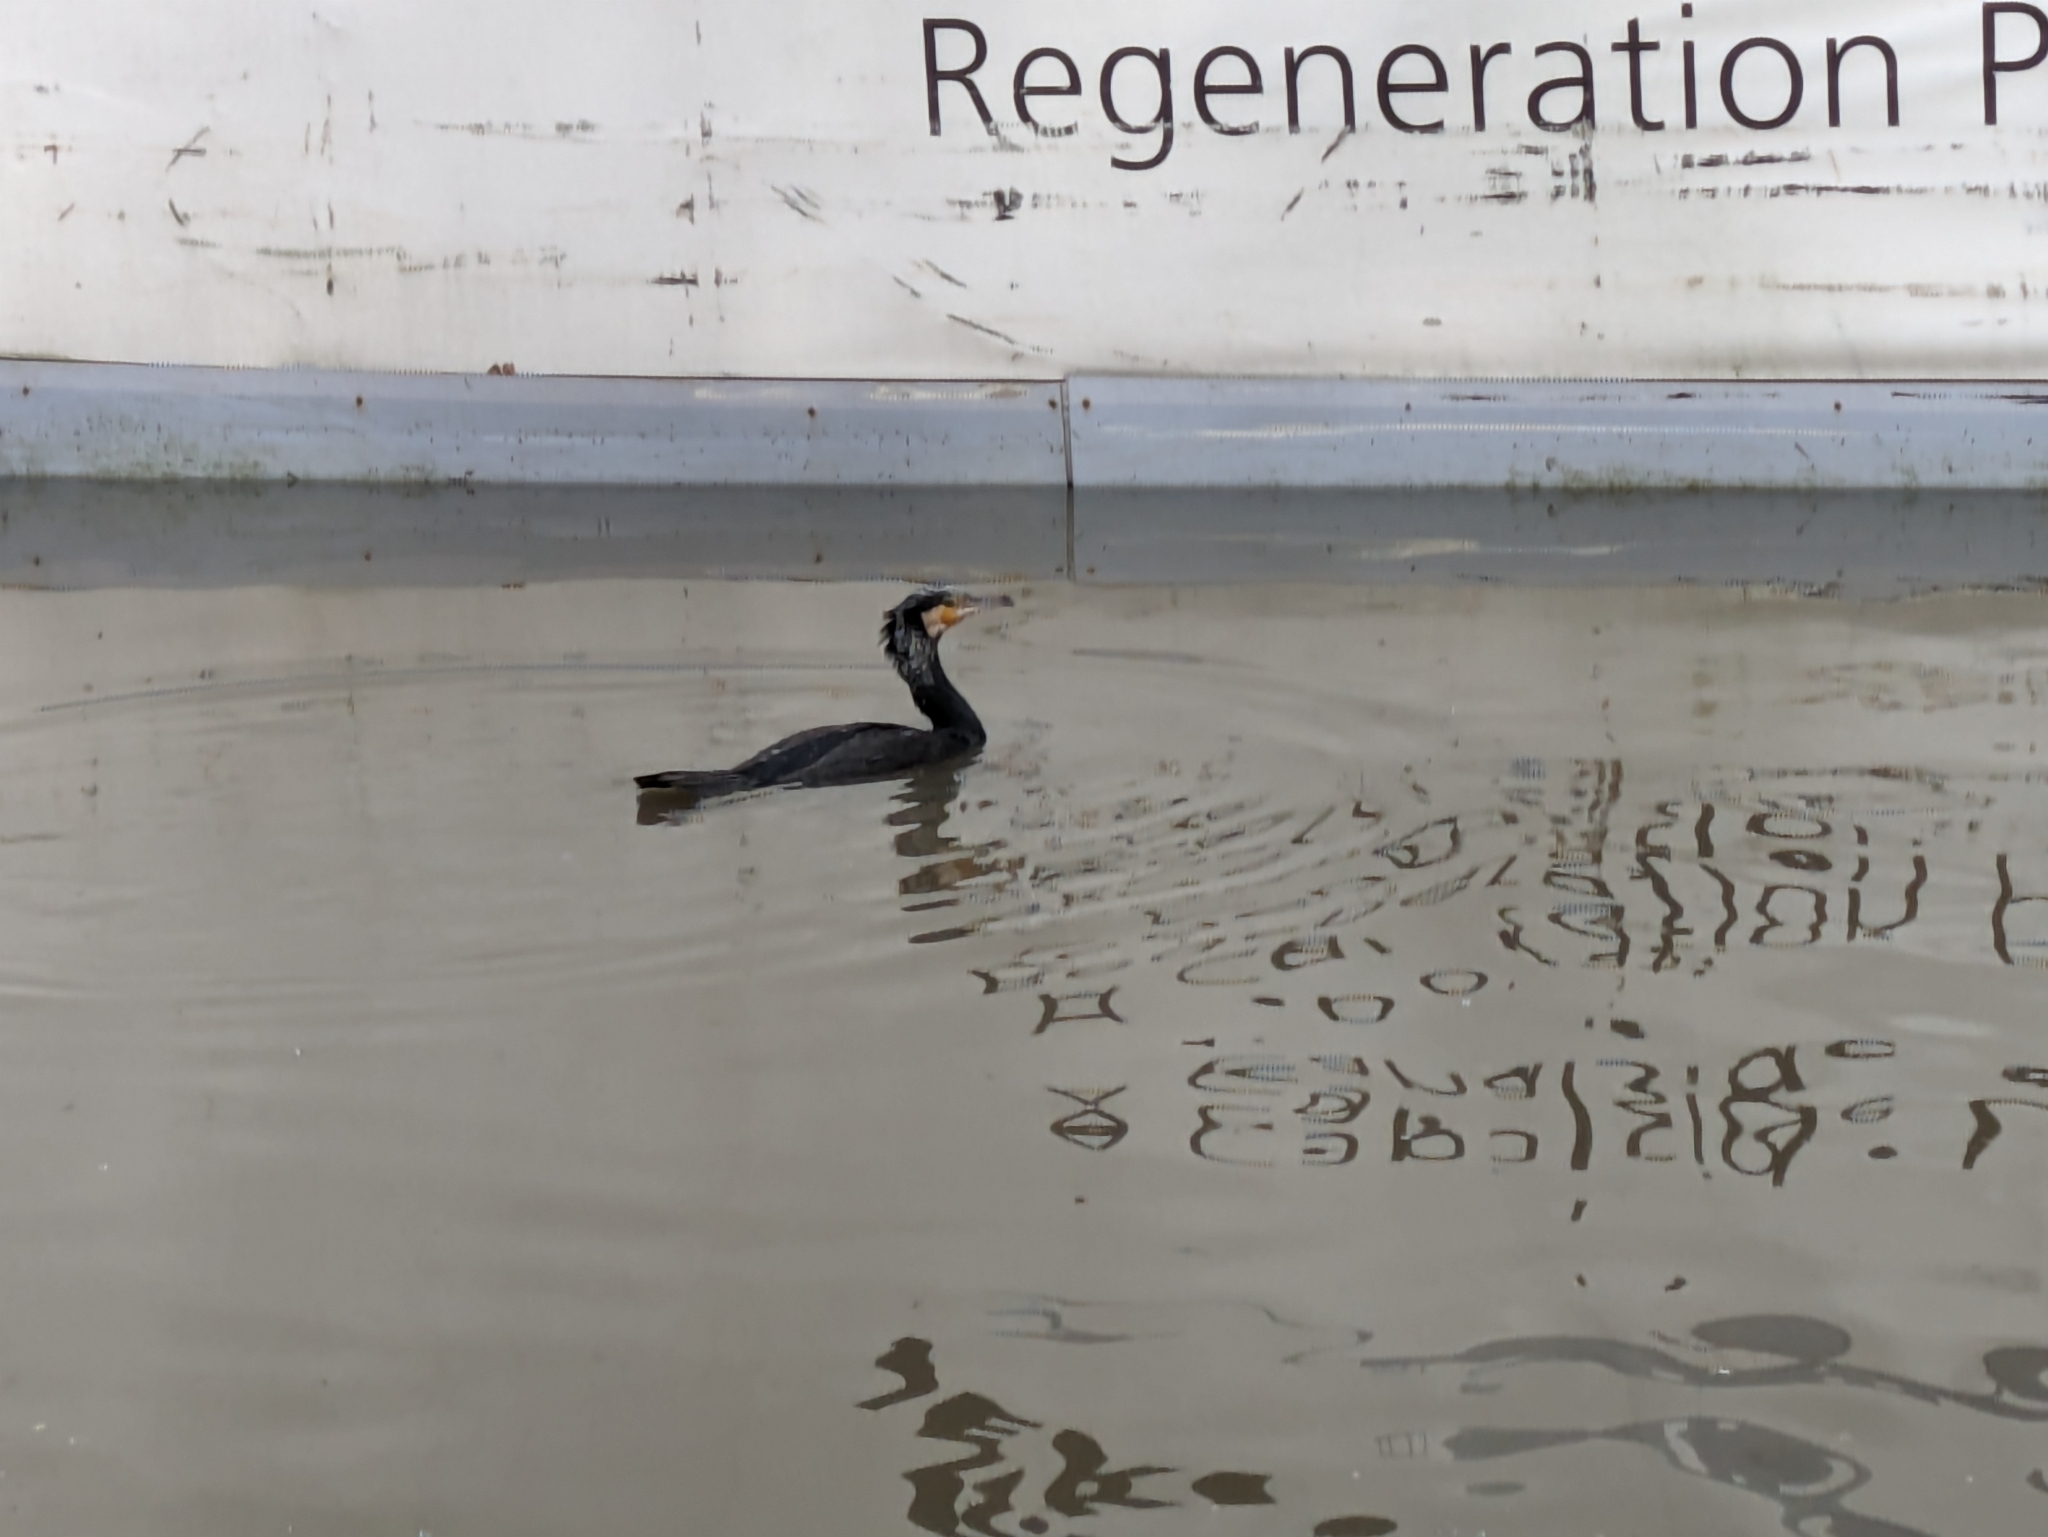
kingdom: Animalia
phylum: Chordata
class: Aves
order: Suliformes
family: Phalacrocoracidae
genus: Phalacrocorax
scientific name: Phalacrocorax carbo
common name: Great cormorant
